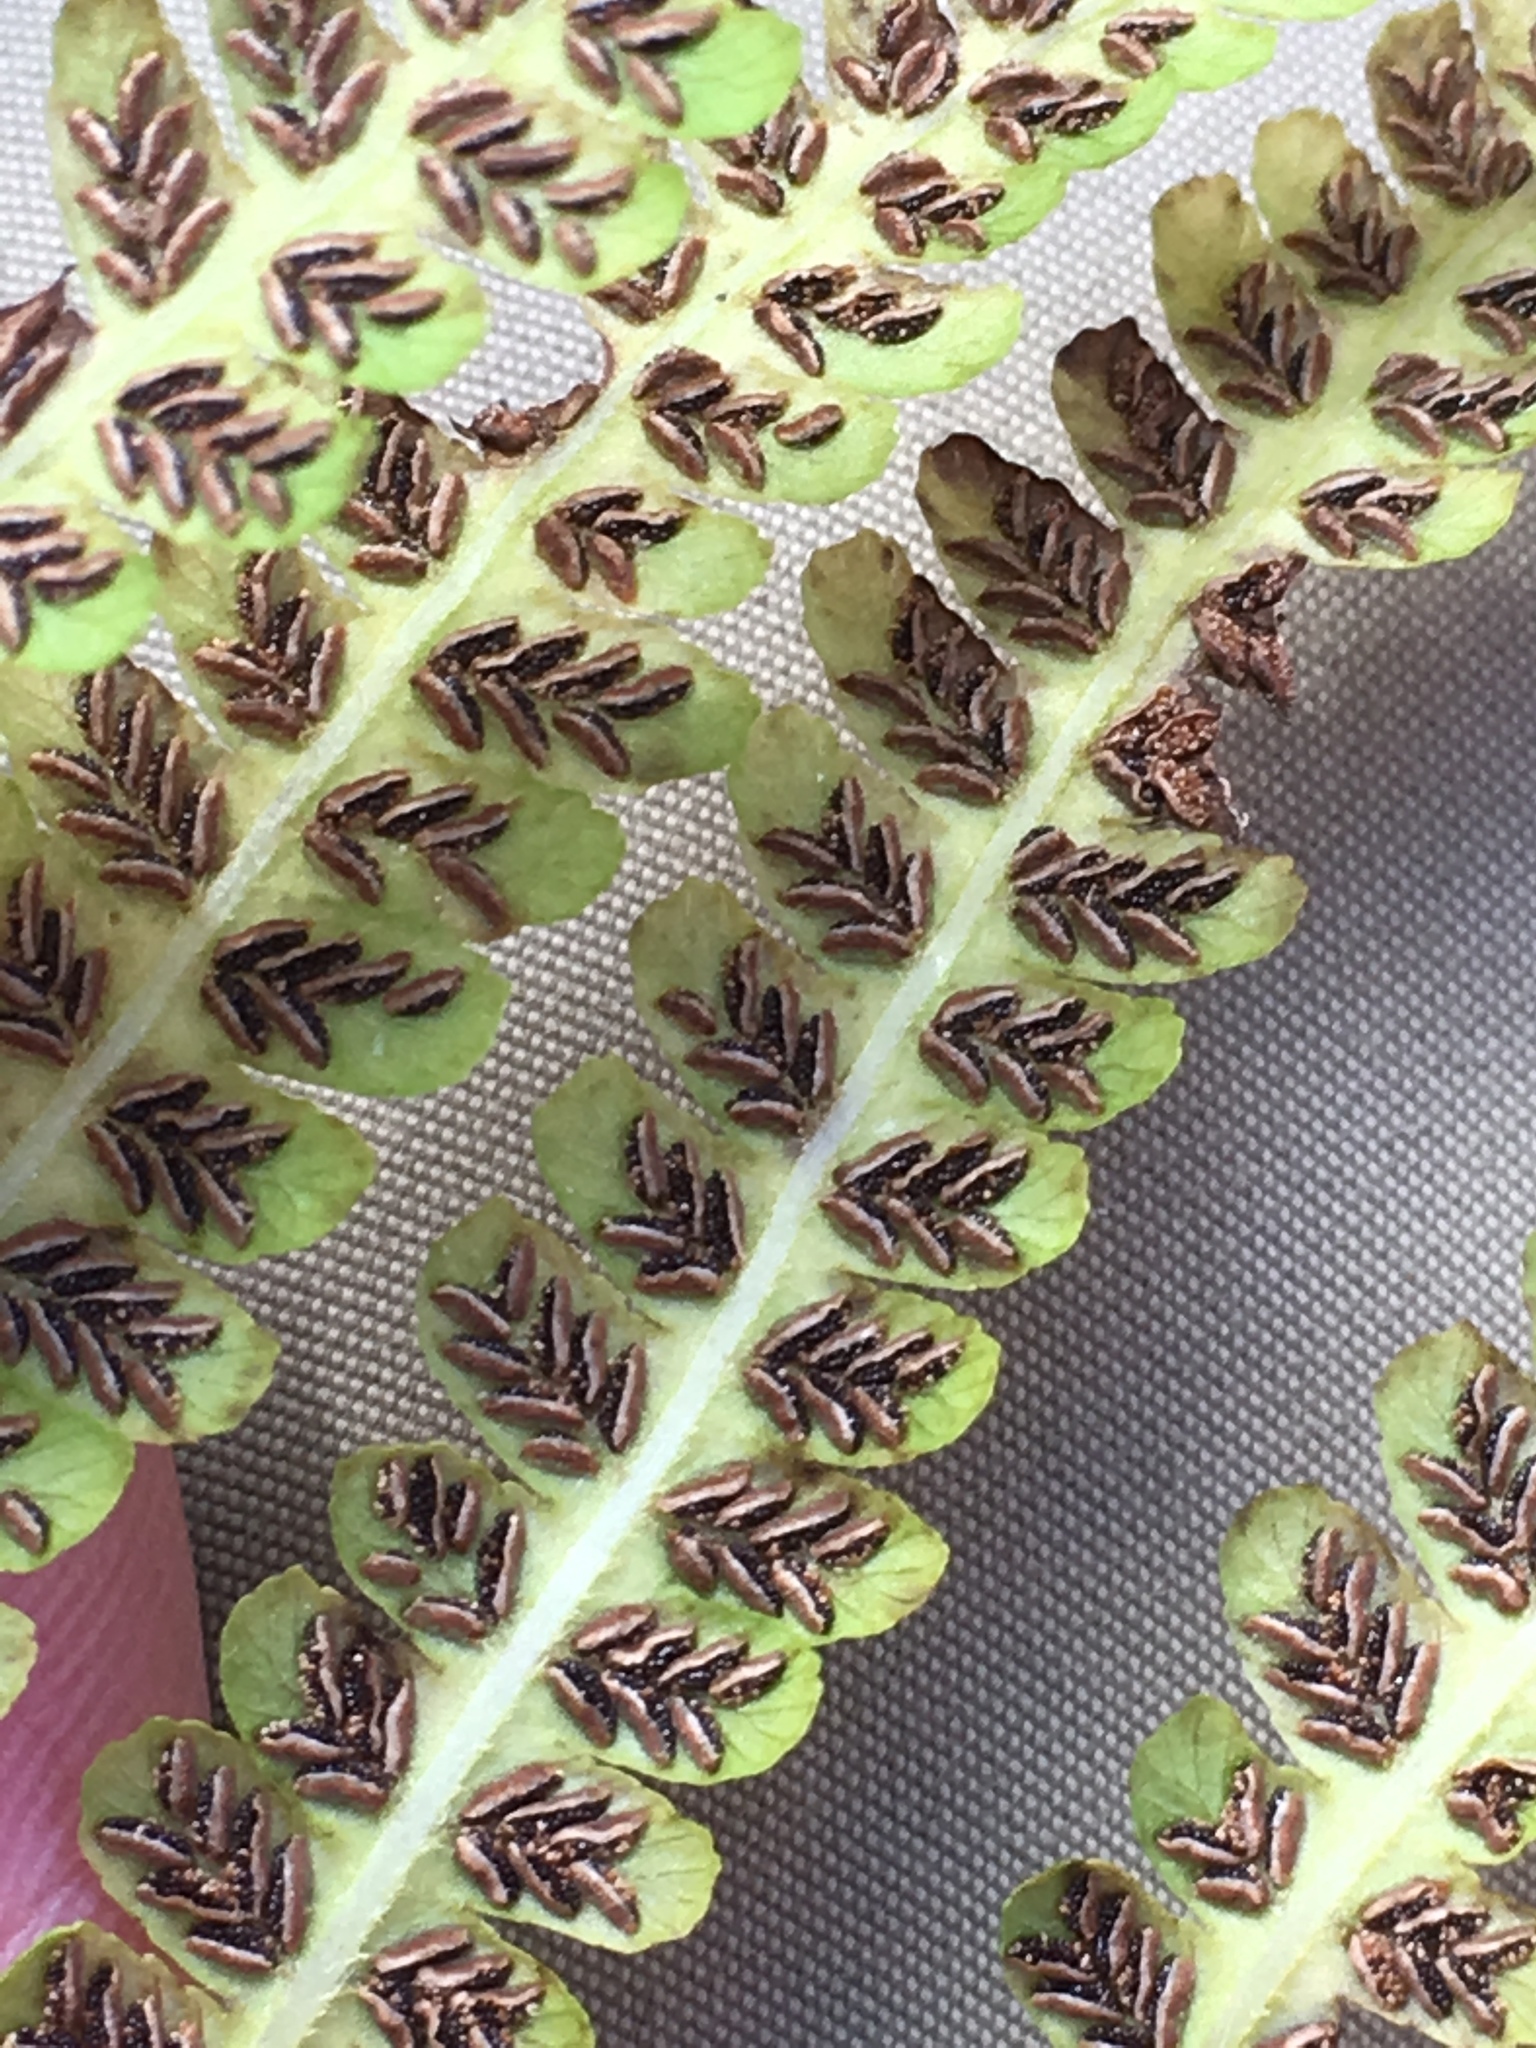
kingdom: Plantae
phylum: Tracheophyta
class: Polypodiopsida
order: Polypodiales
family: Athyriaceae
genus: Deparia
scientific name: Deparia acrostichoides
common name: Silver false spleenwort
